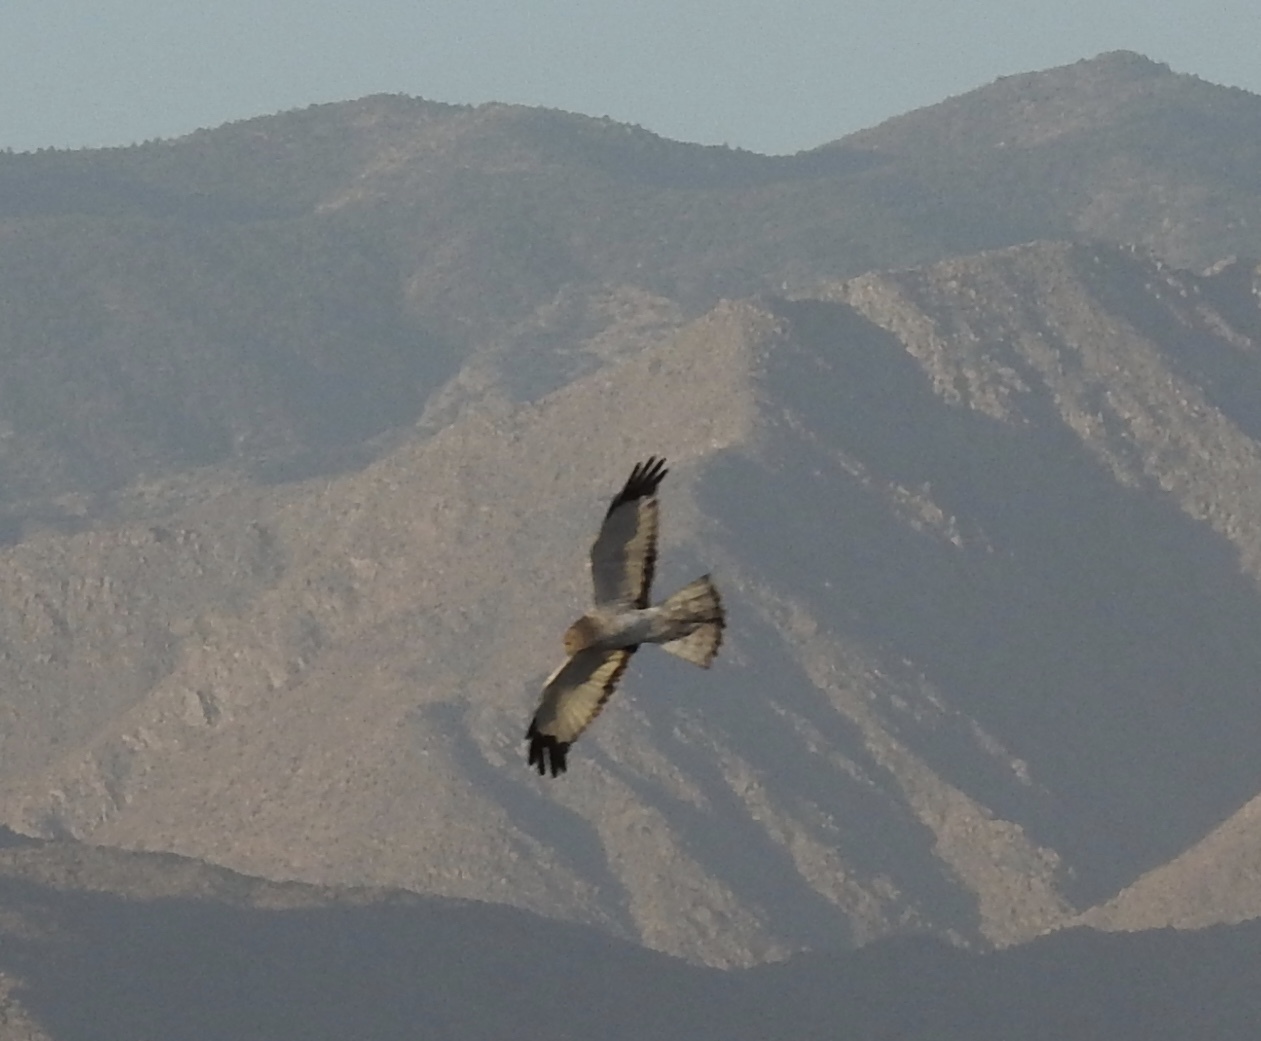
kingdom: Animalia
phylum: Chordata
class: Aves
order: Accipitriformes
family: Accipitridae
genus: Circus
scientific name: Circus cyaneus
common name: Hen harrier
